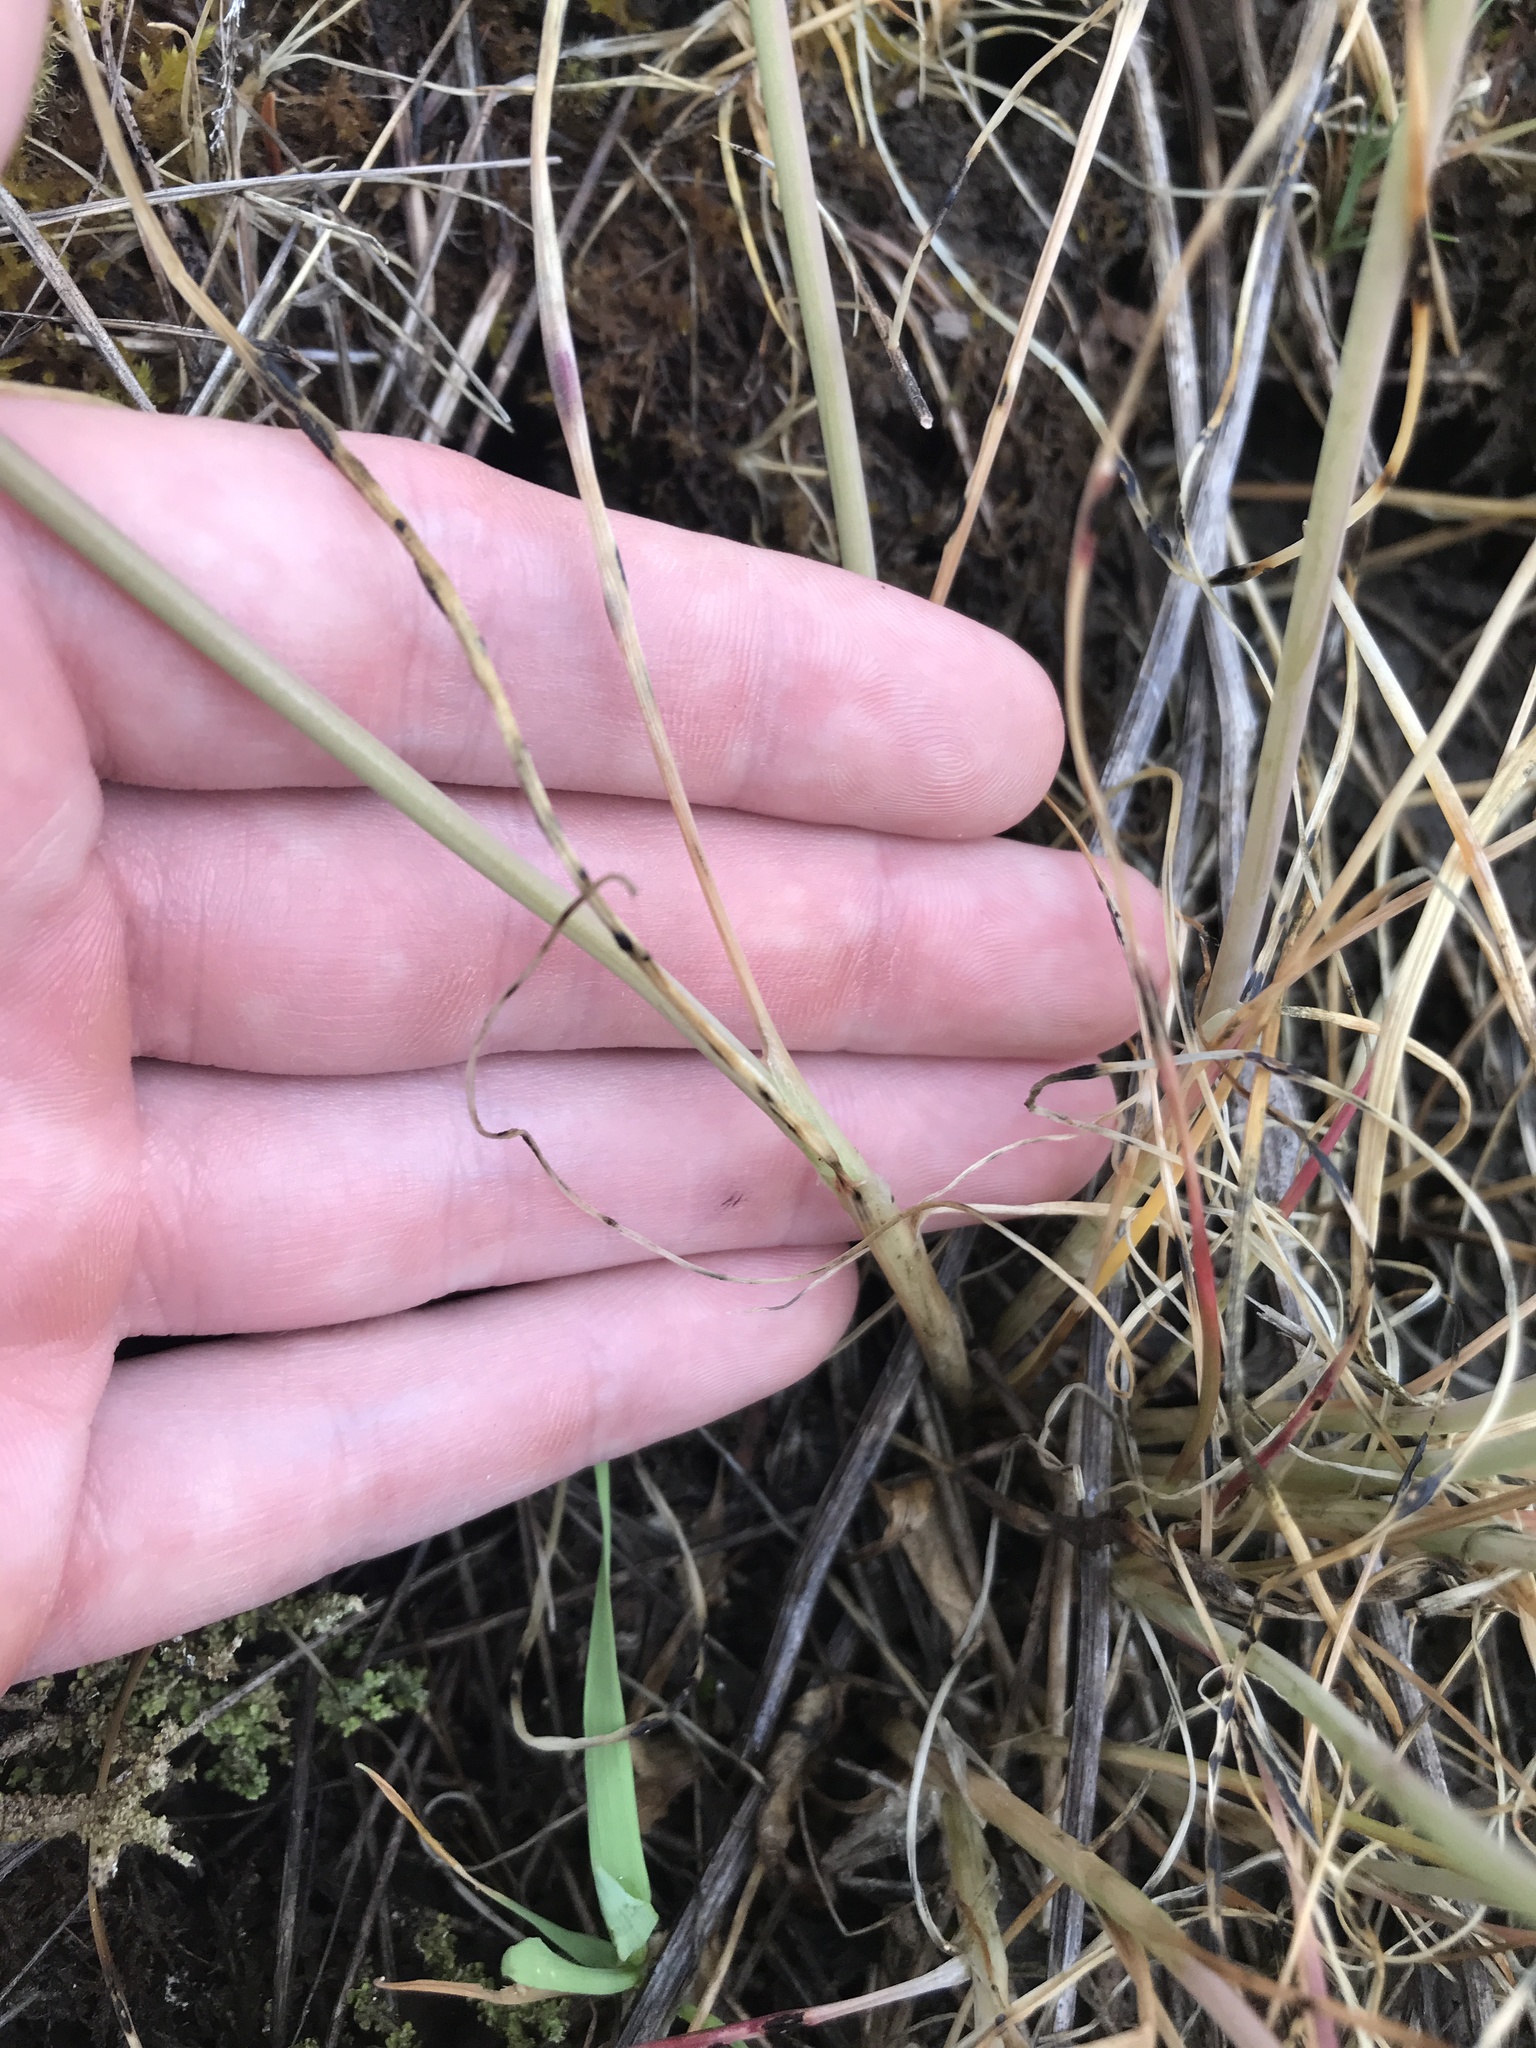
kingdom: Plantae
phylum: Tracheophyta
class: Liliopsida
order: Asparagales
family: Amaryllidaceae
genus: Allium
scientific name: Allium amplectens
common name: Narrow-leaved onion
